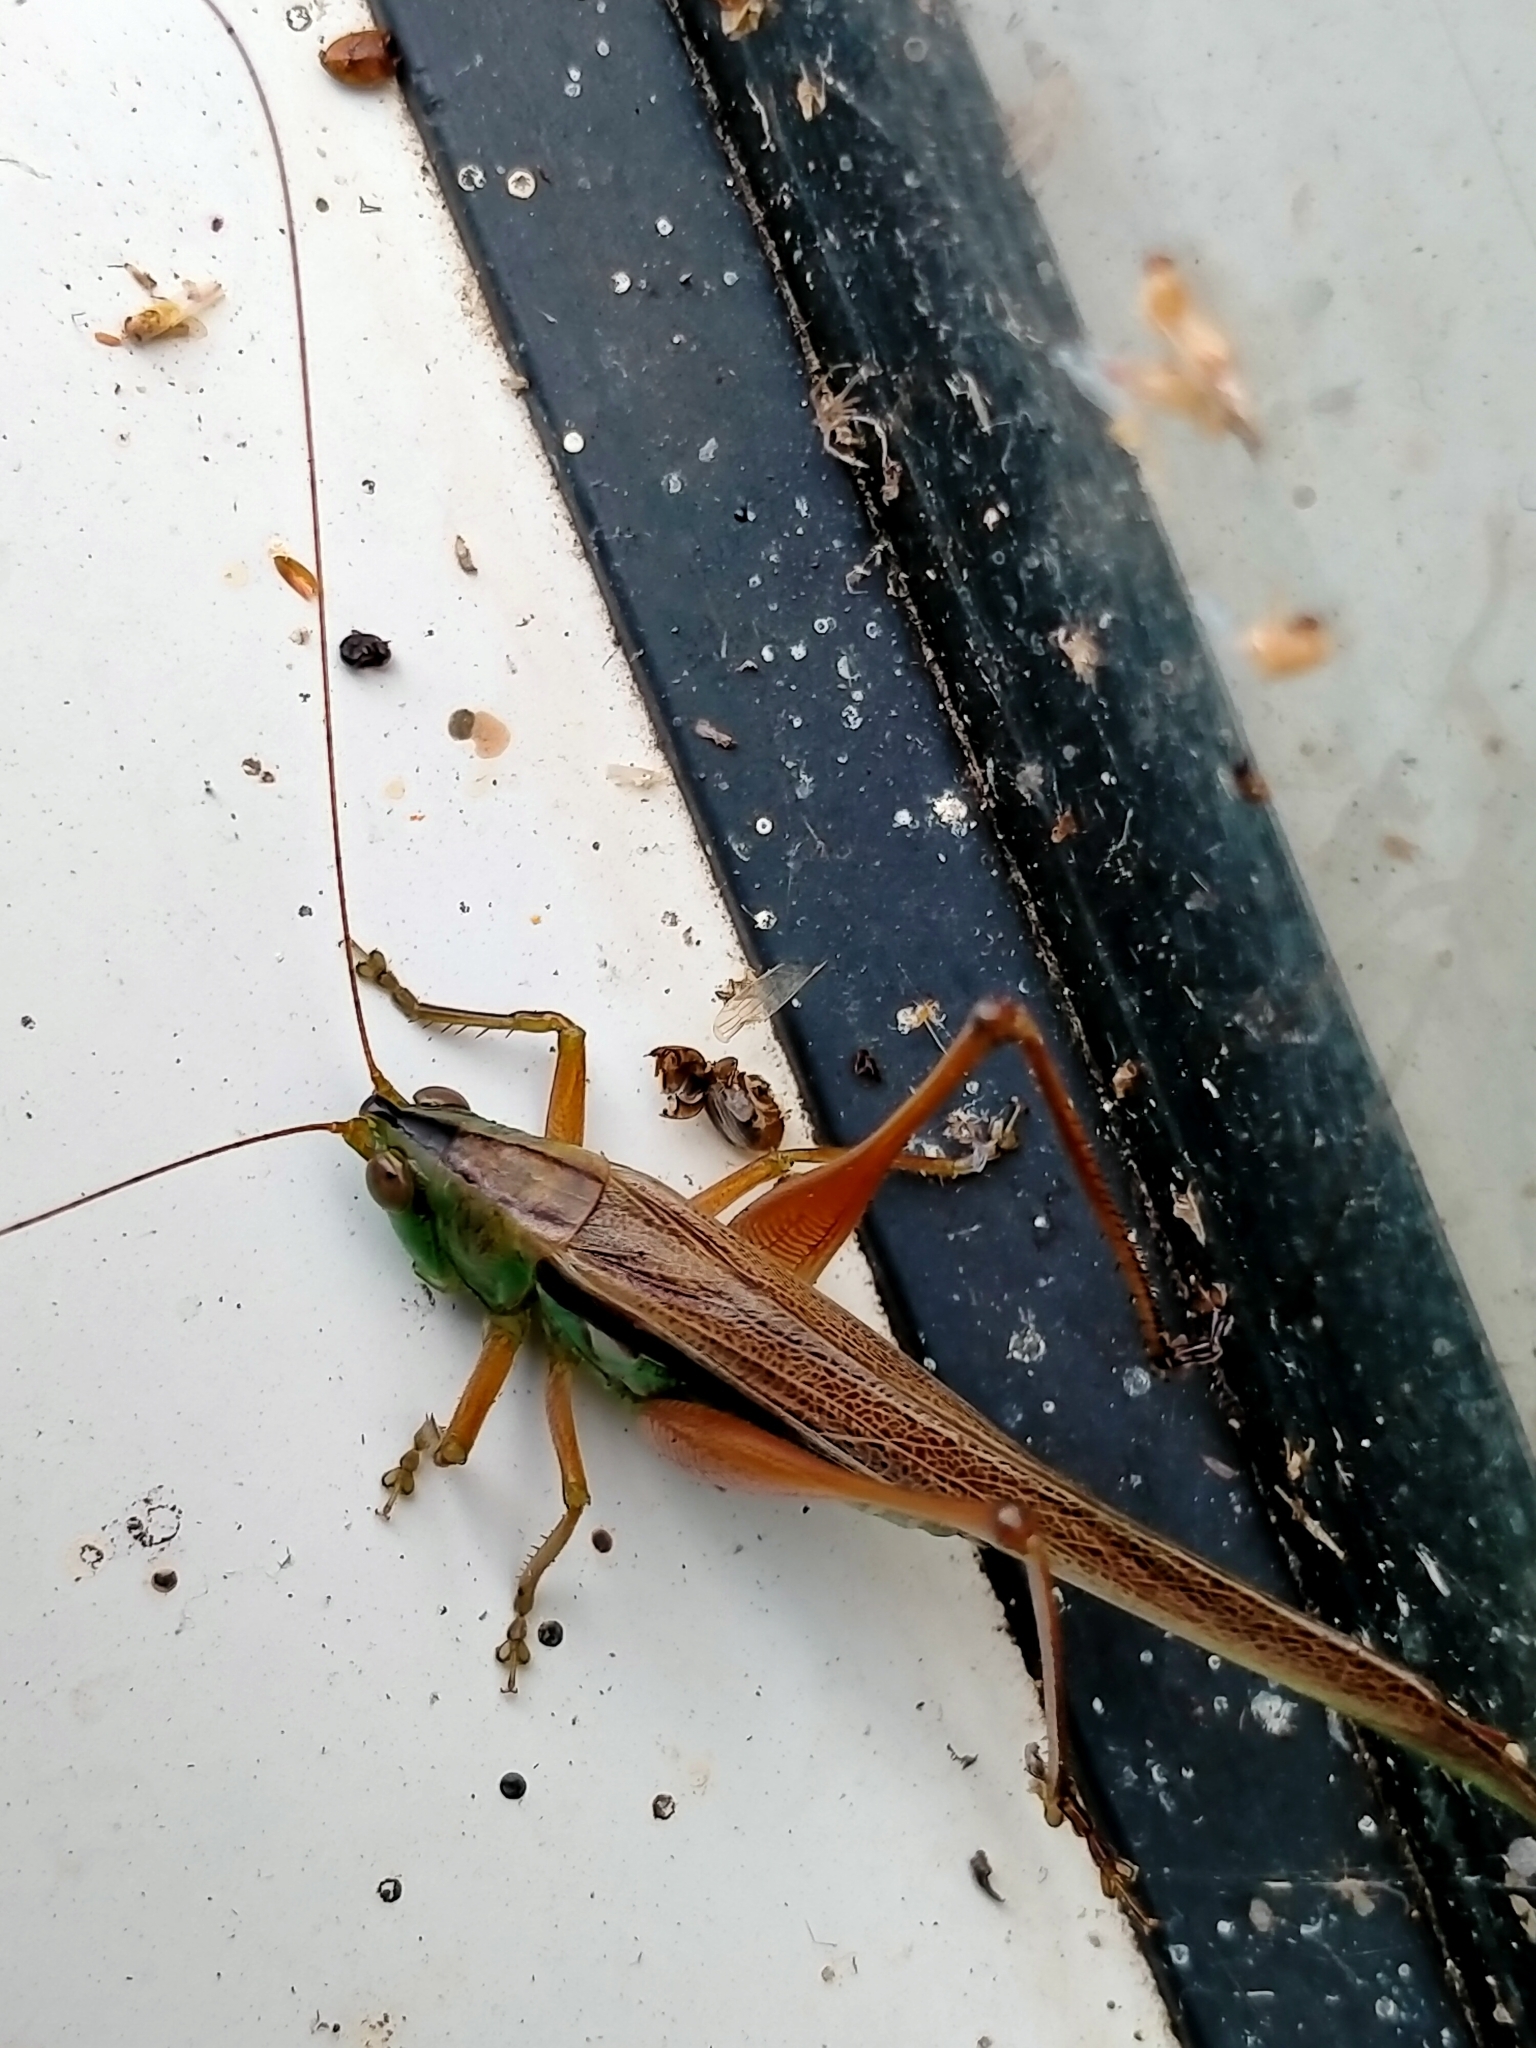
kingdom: Animalia
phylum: Arthropoda
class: Insecta
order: Orthoptera
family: Tettigoniidae
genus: Conocephalus
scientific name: Conocephalus semivittatus
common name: Blackish meadow katydid
